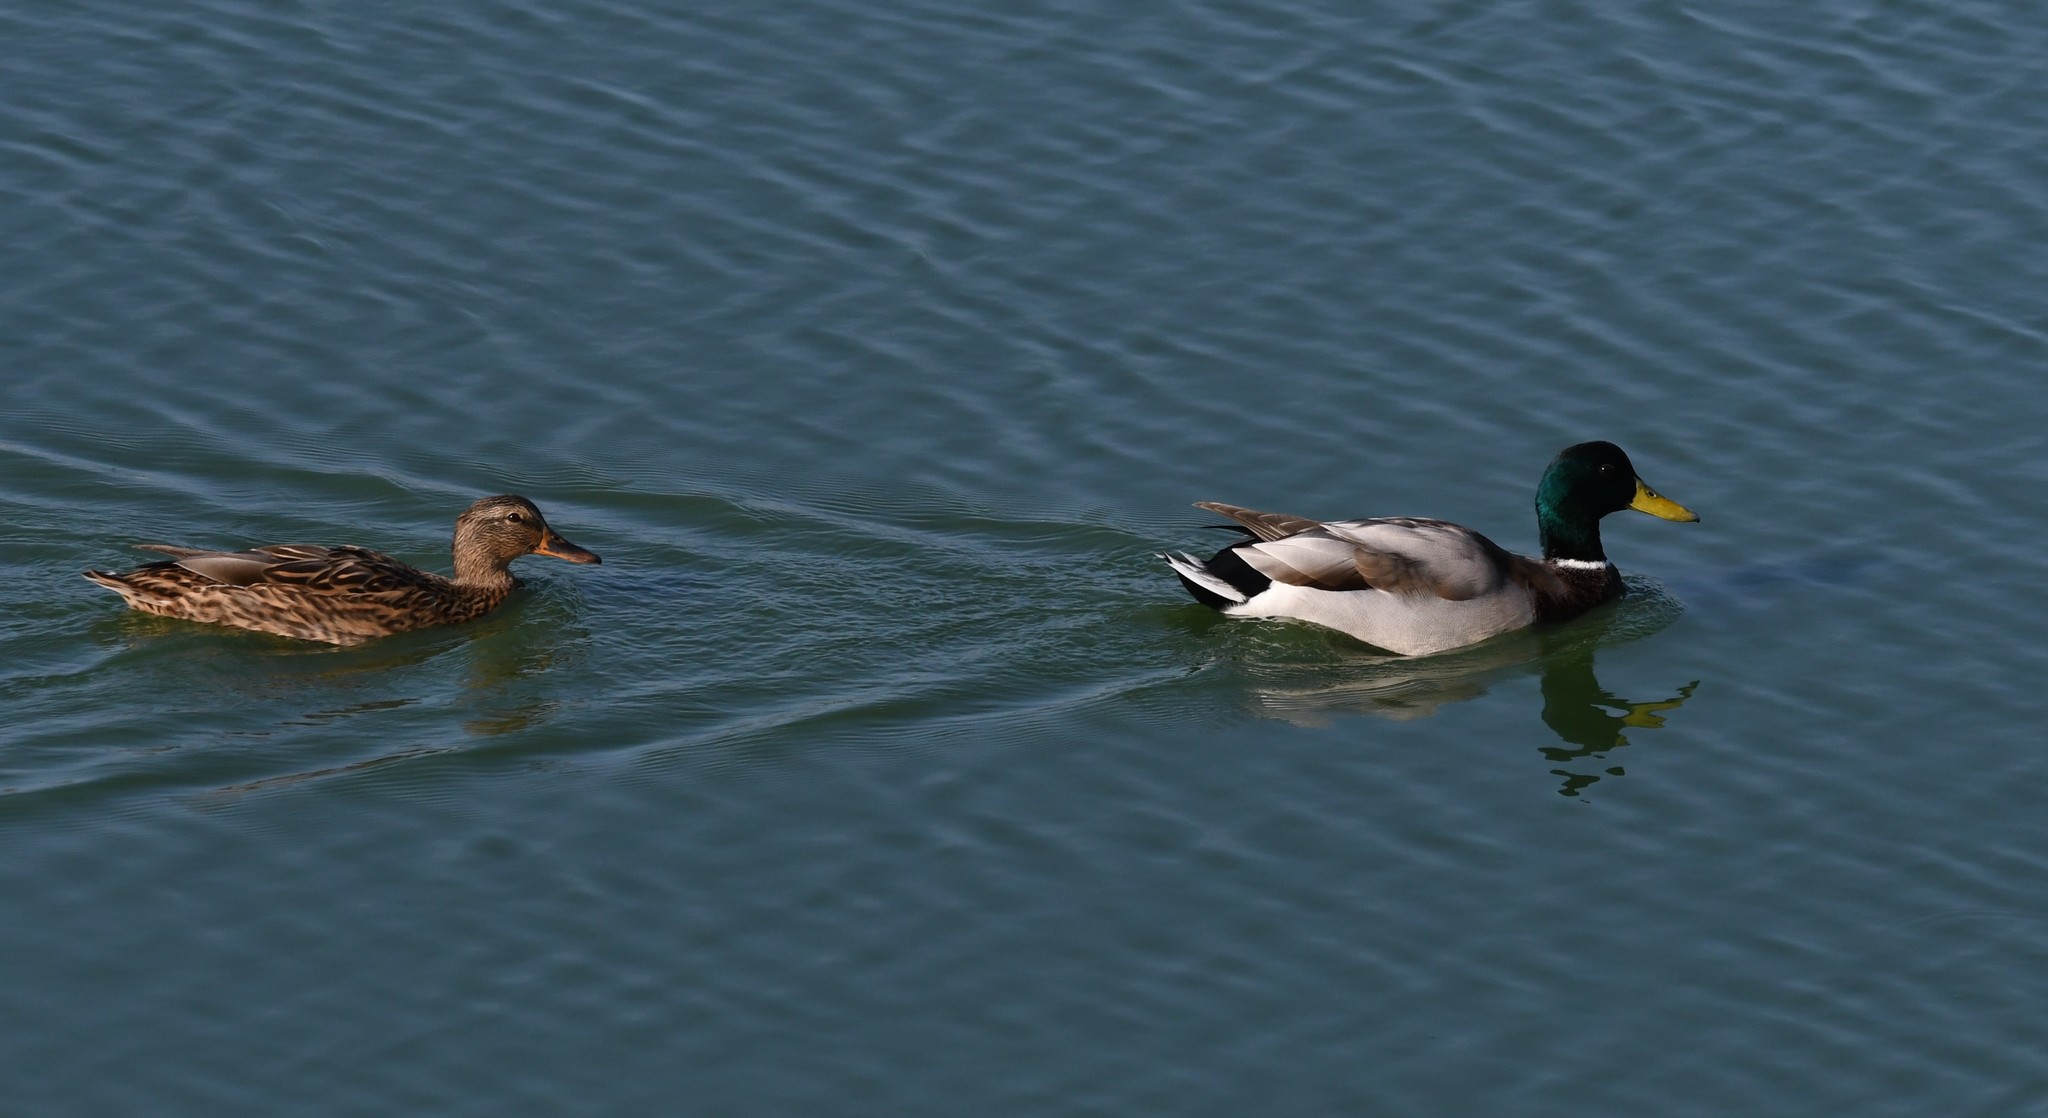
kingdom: Animalia
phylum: Chordata
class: Aves
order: Anseriformes
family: Anatidae
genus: Anas
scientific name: Anas platyrhynchos
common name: Mallard
